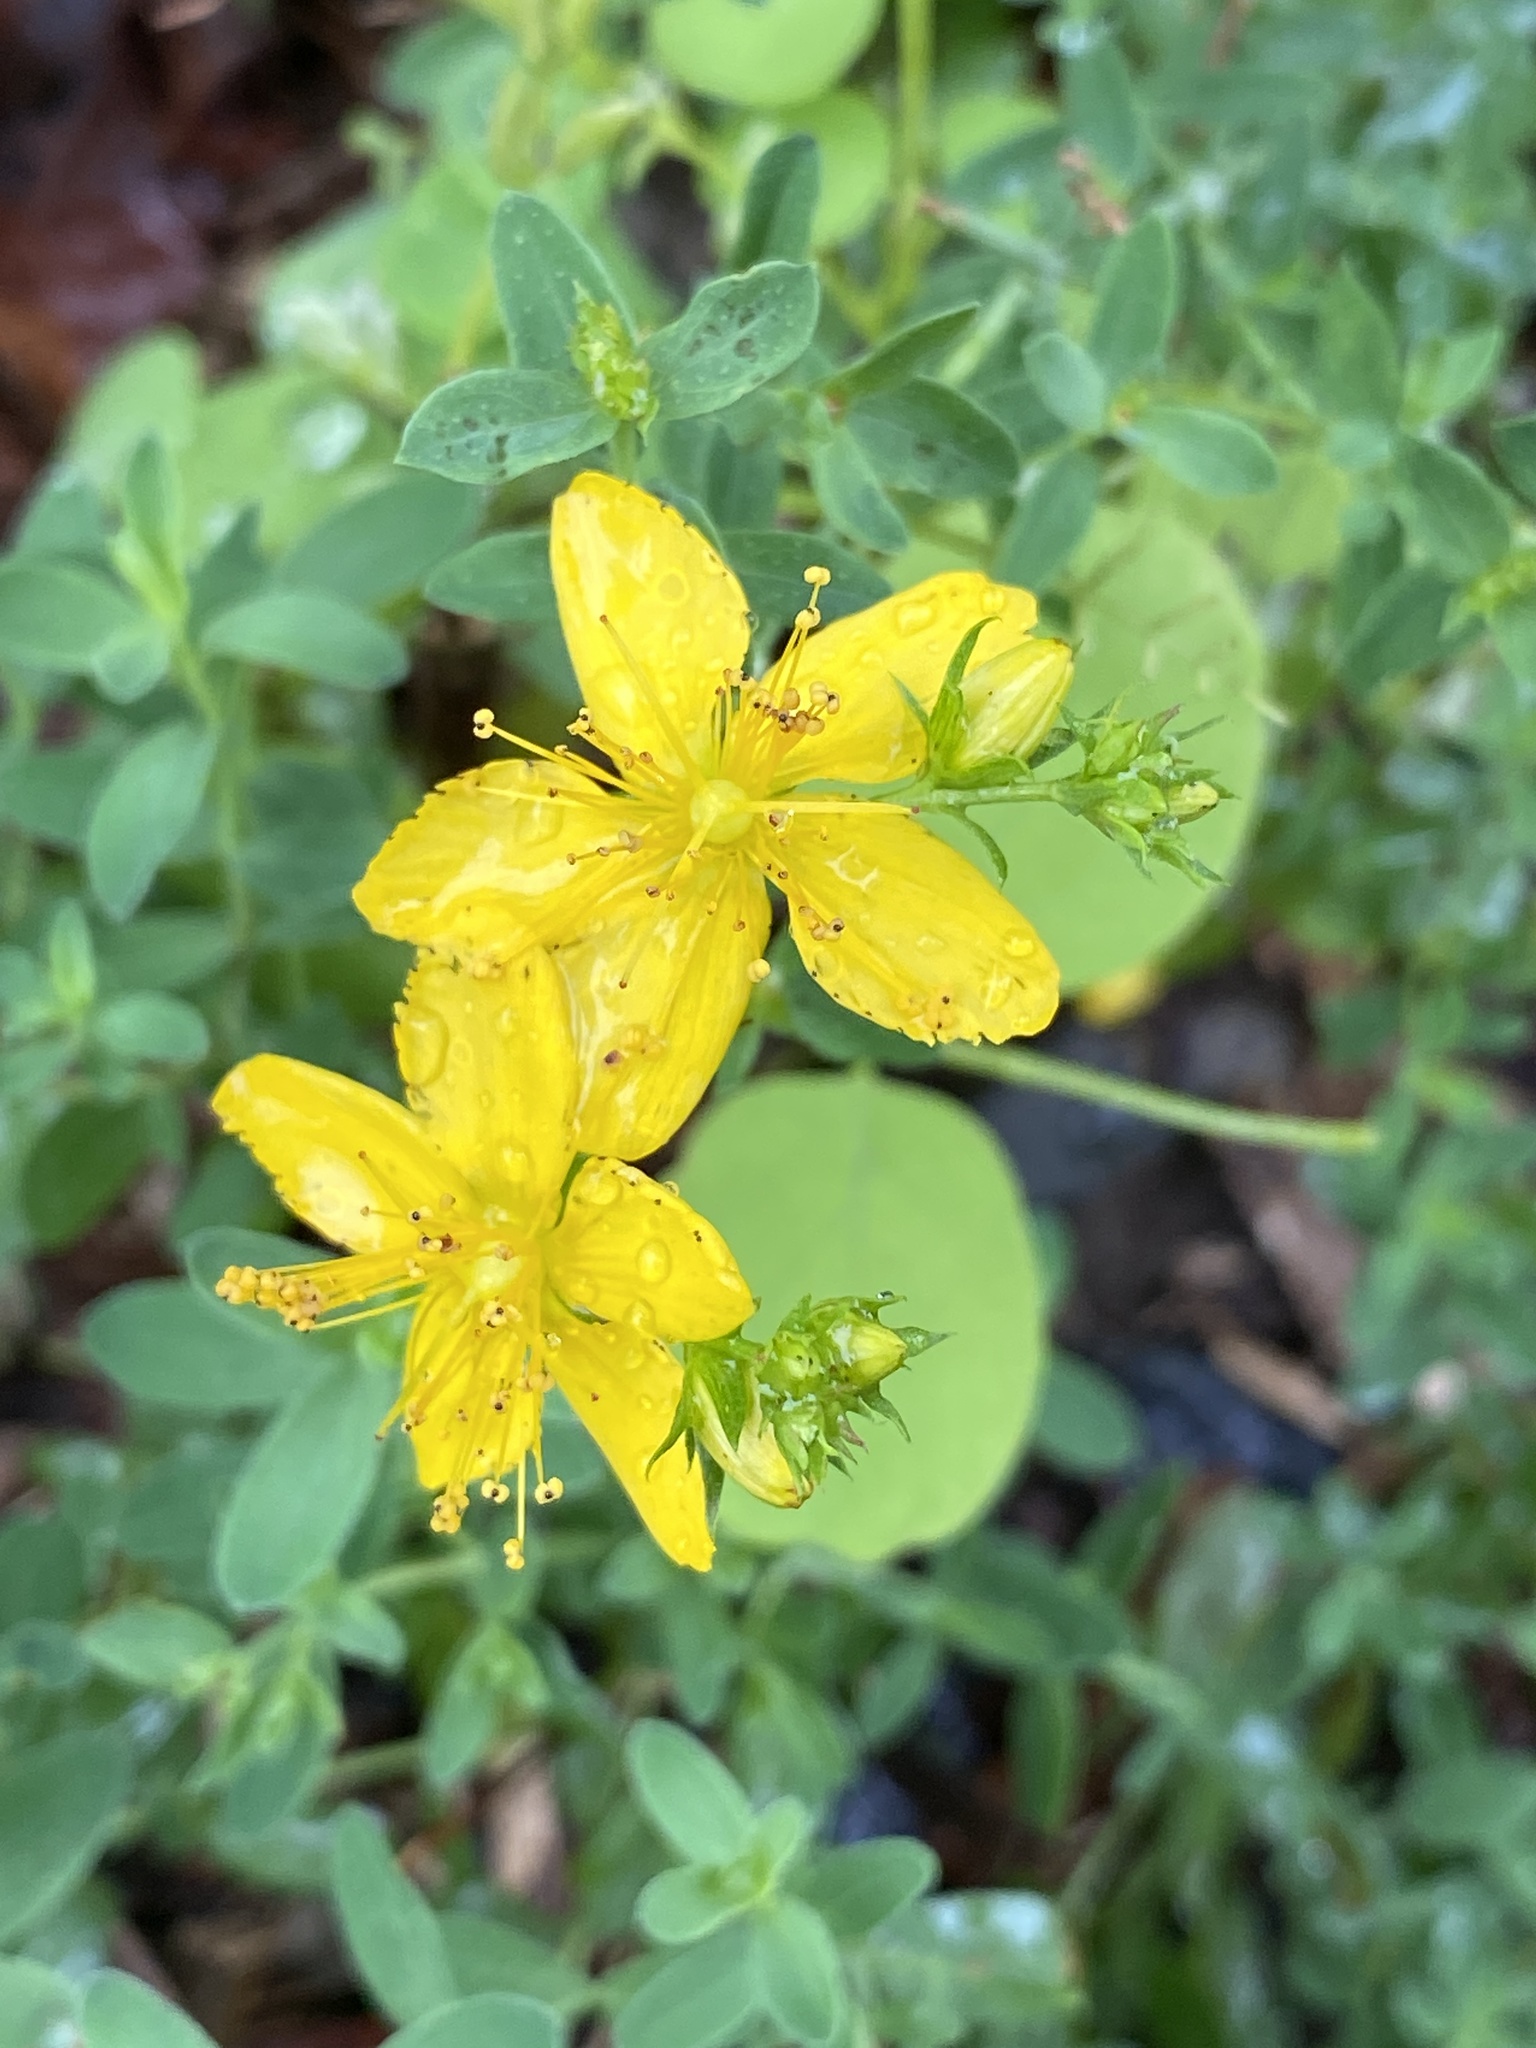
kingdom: Plantae
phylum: Tracheophyta
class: Magnoliopsida
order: Malpighiales
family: Hypericaceae
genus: Hypericum
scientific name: Hypericum perforatum
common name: Common st. johnswort
